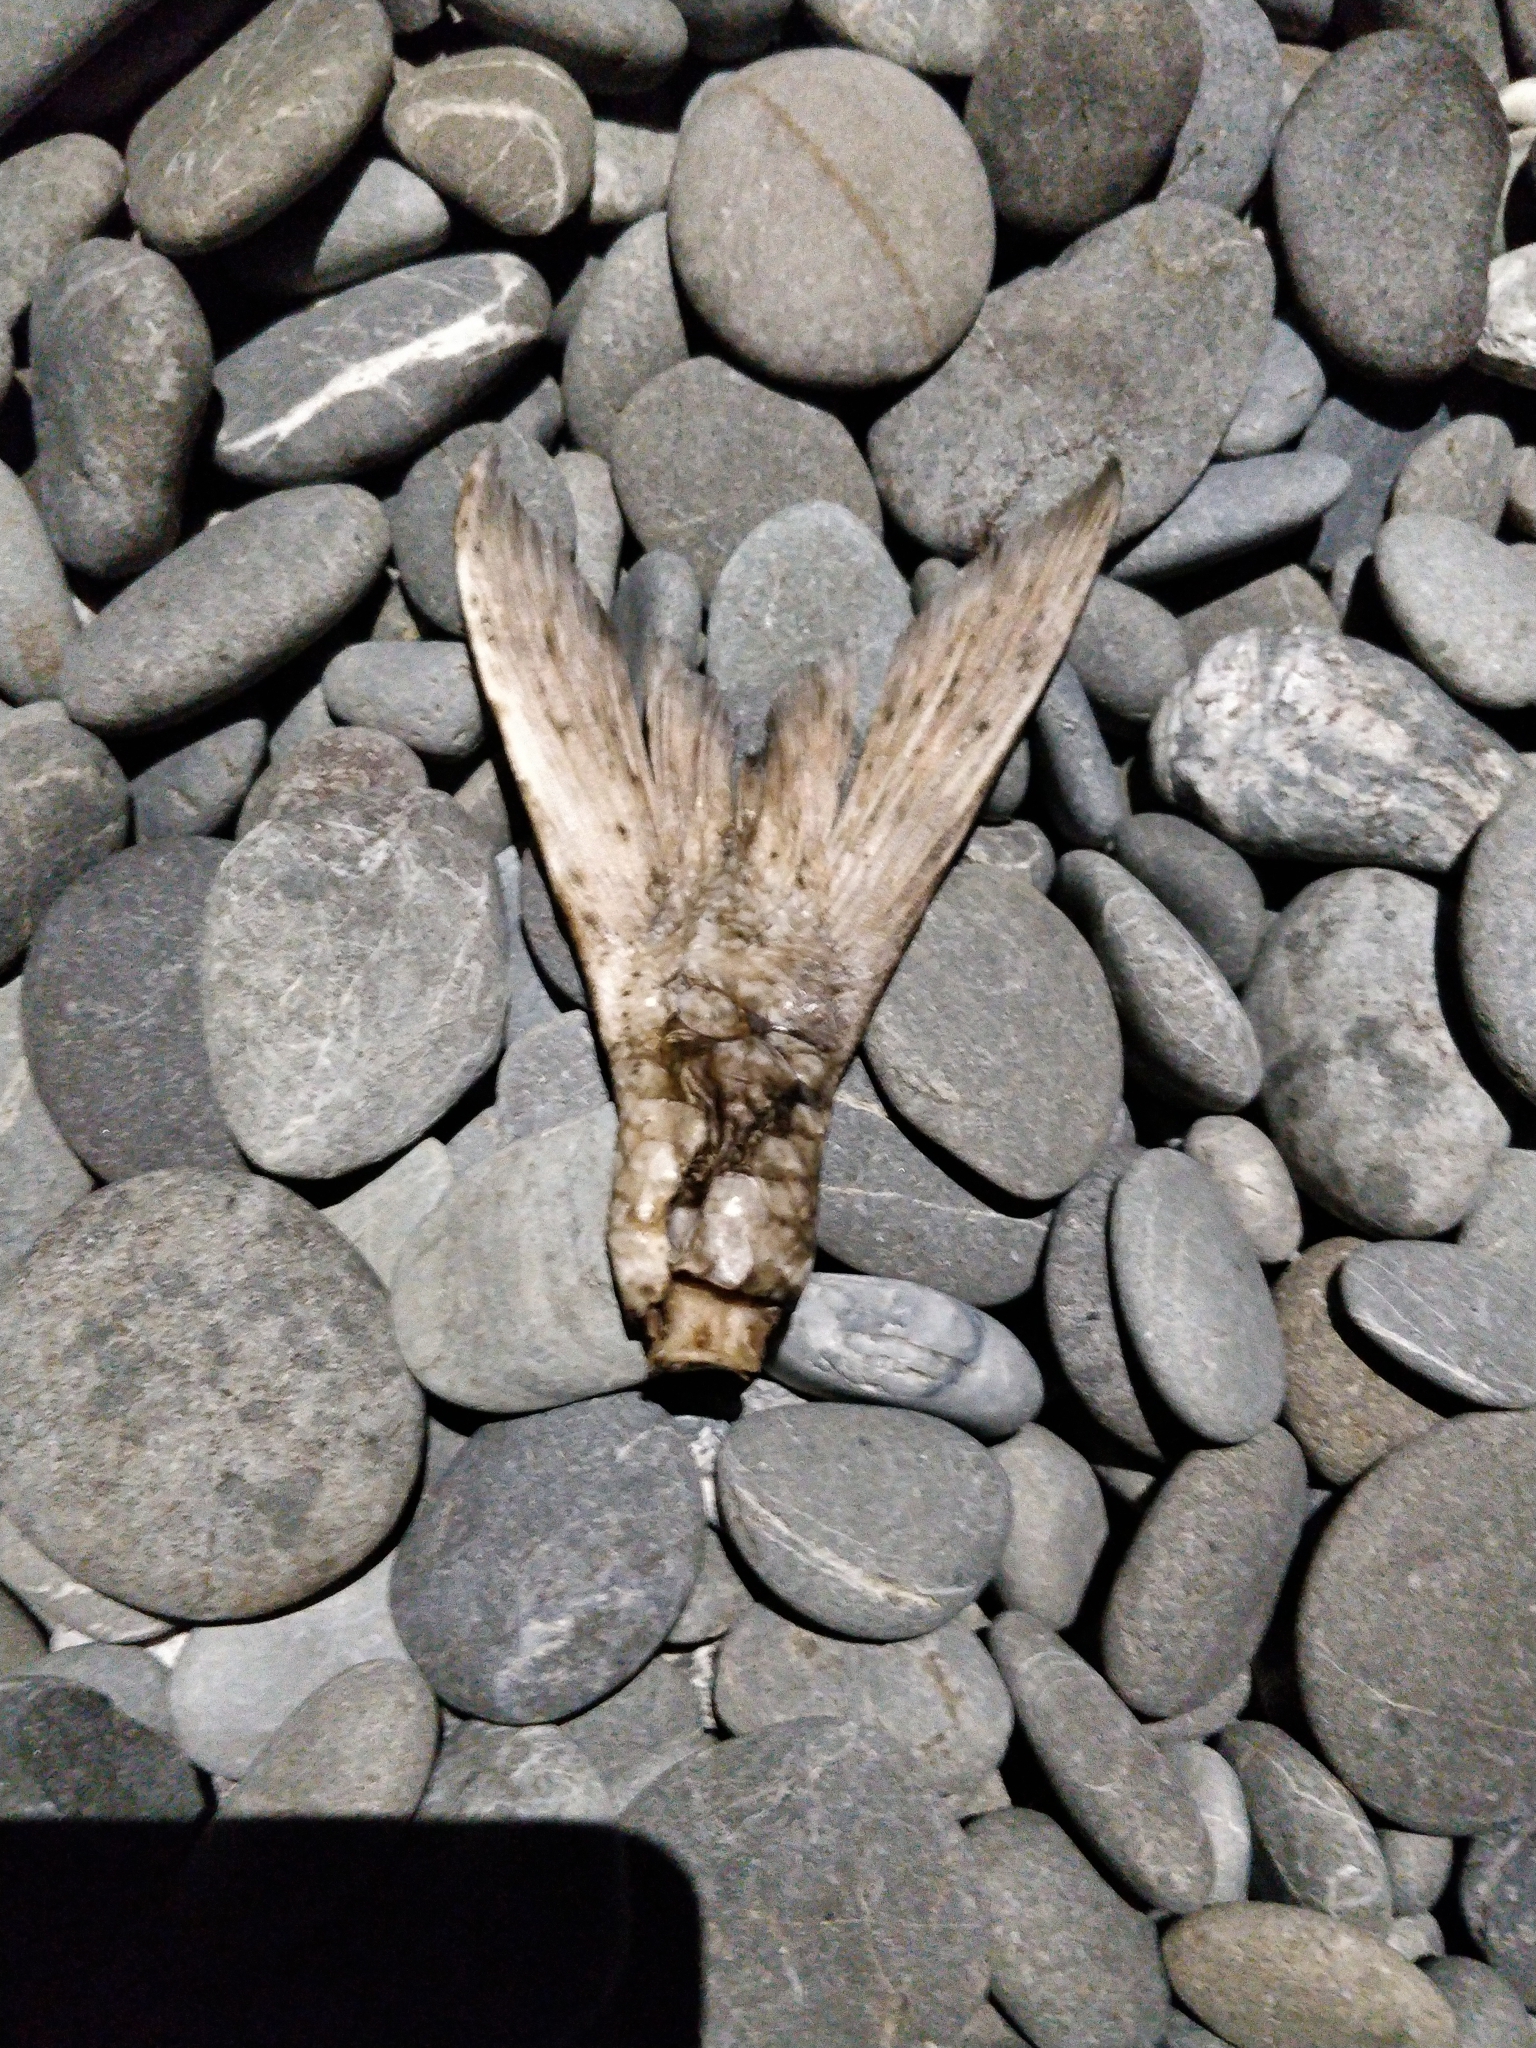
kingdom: Animalia
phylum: Chordata
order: Perciformes
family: Arripidae
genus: Arripis
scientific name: Arripis trutta
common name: Kahawai
